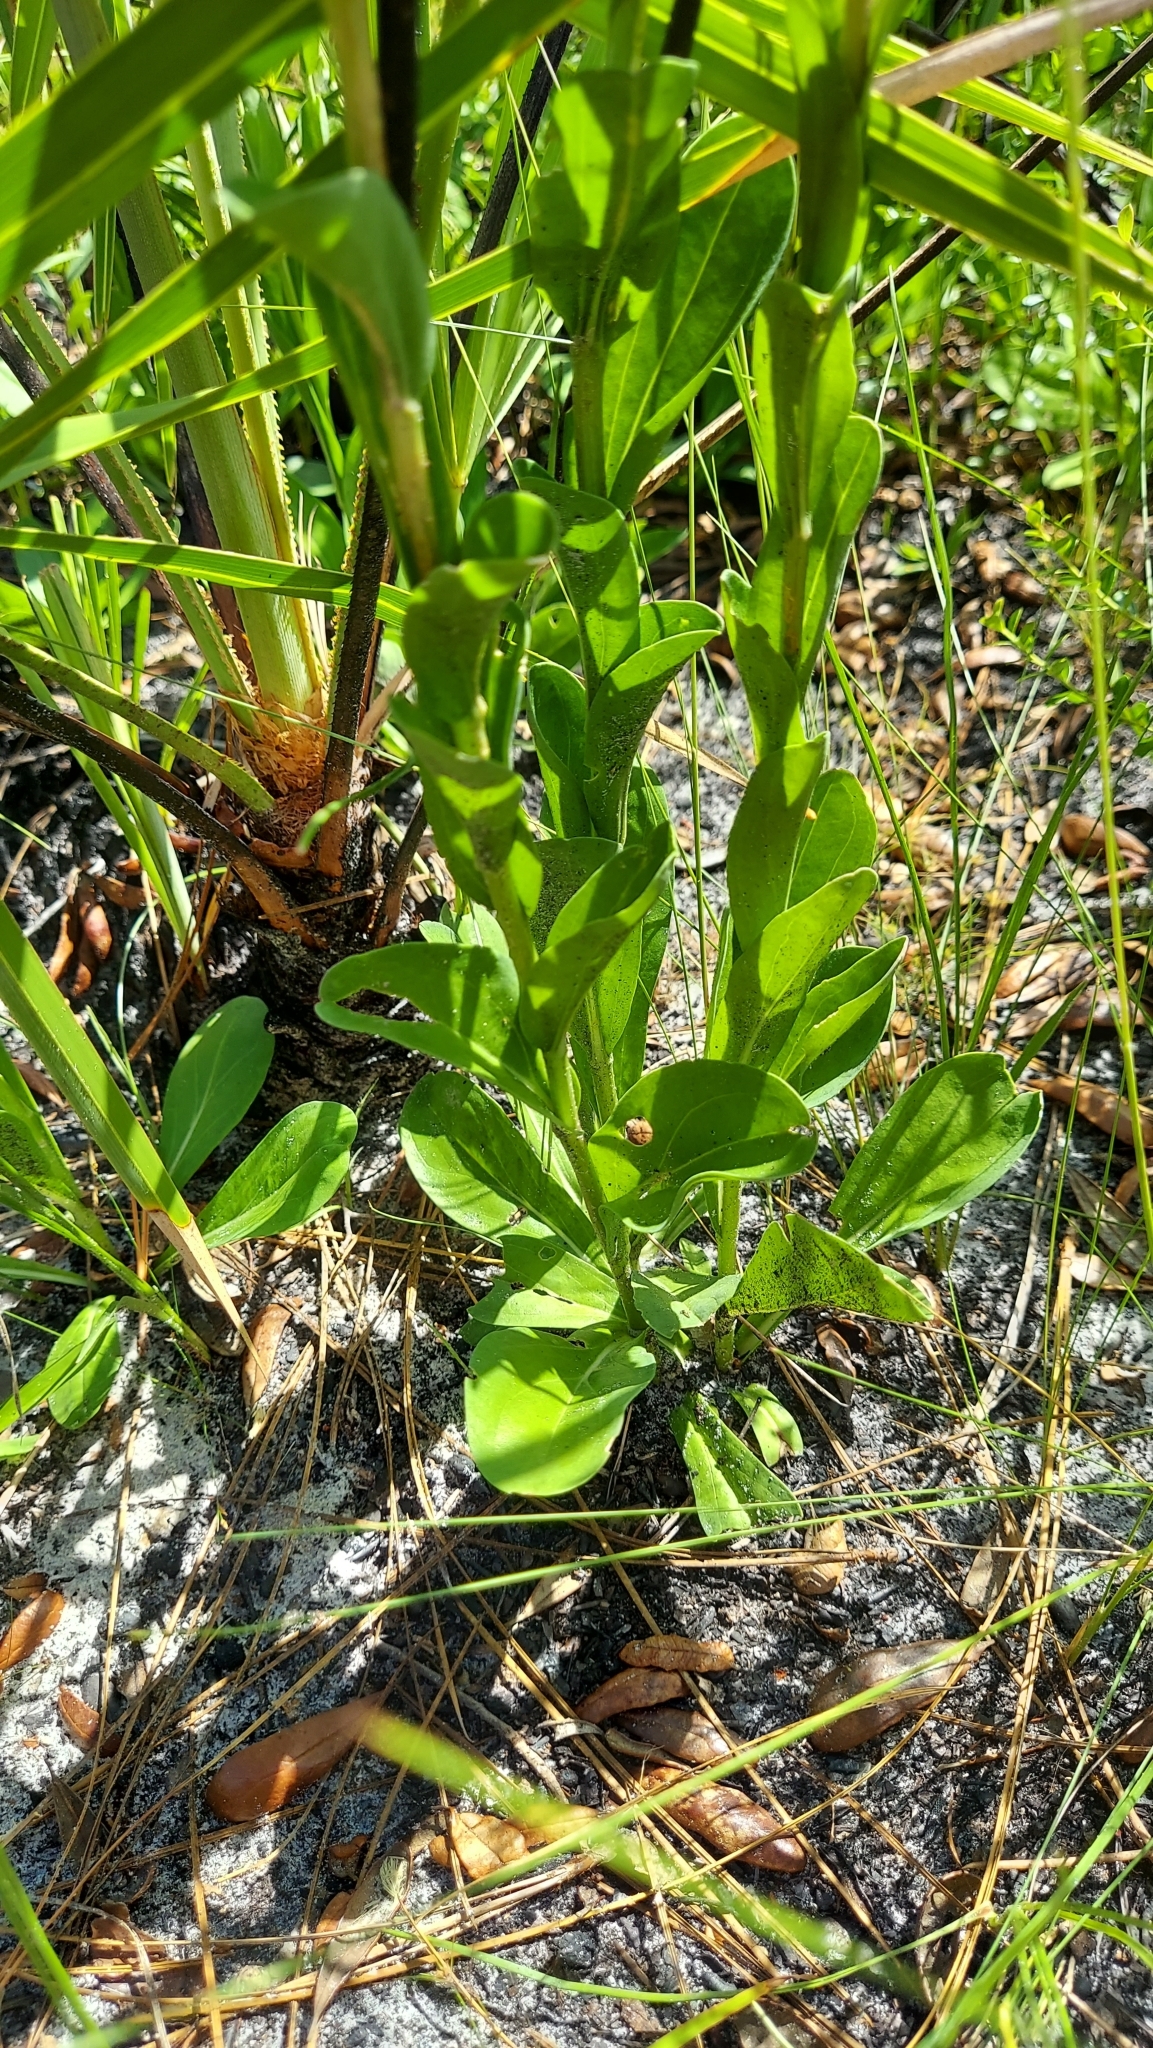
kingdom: Plantae
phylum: Tracheophyta
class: Magnoliopsida
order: Asterales
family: Asteraceae
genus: Carphephorus
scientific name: Carphephorus odoratissimus
